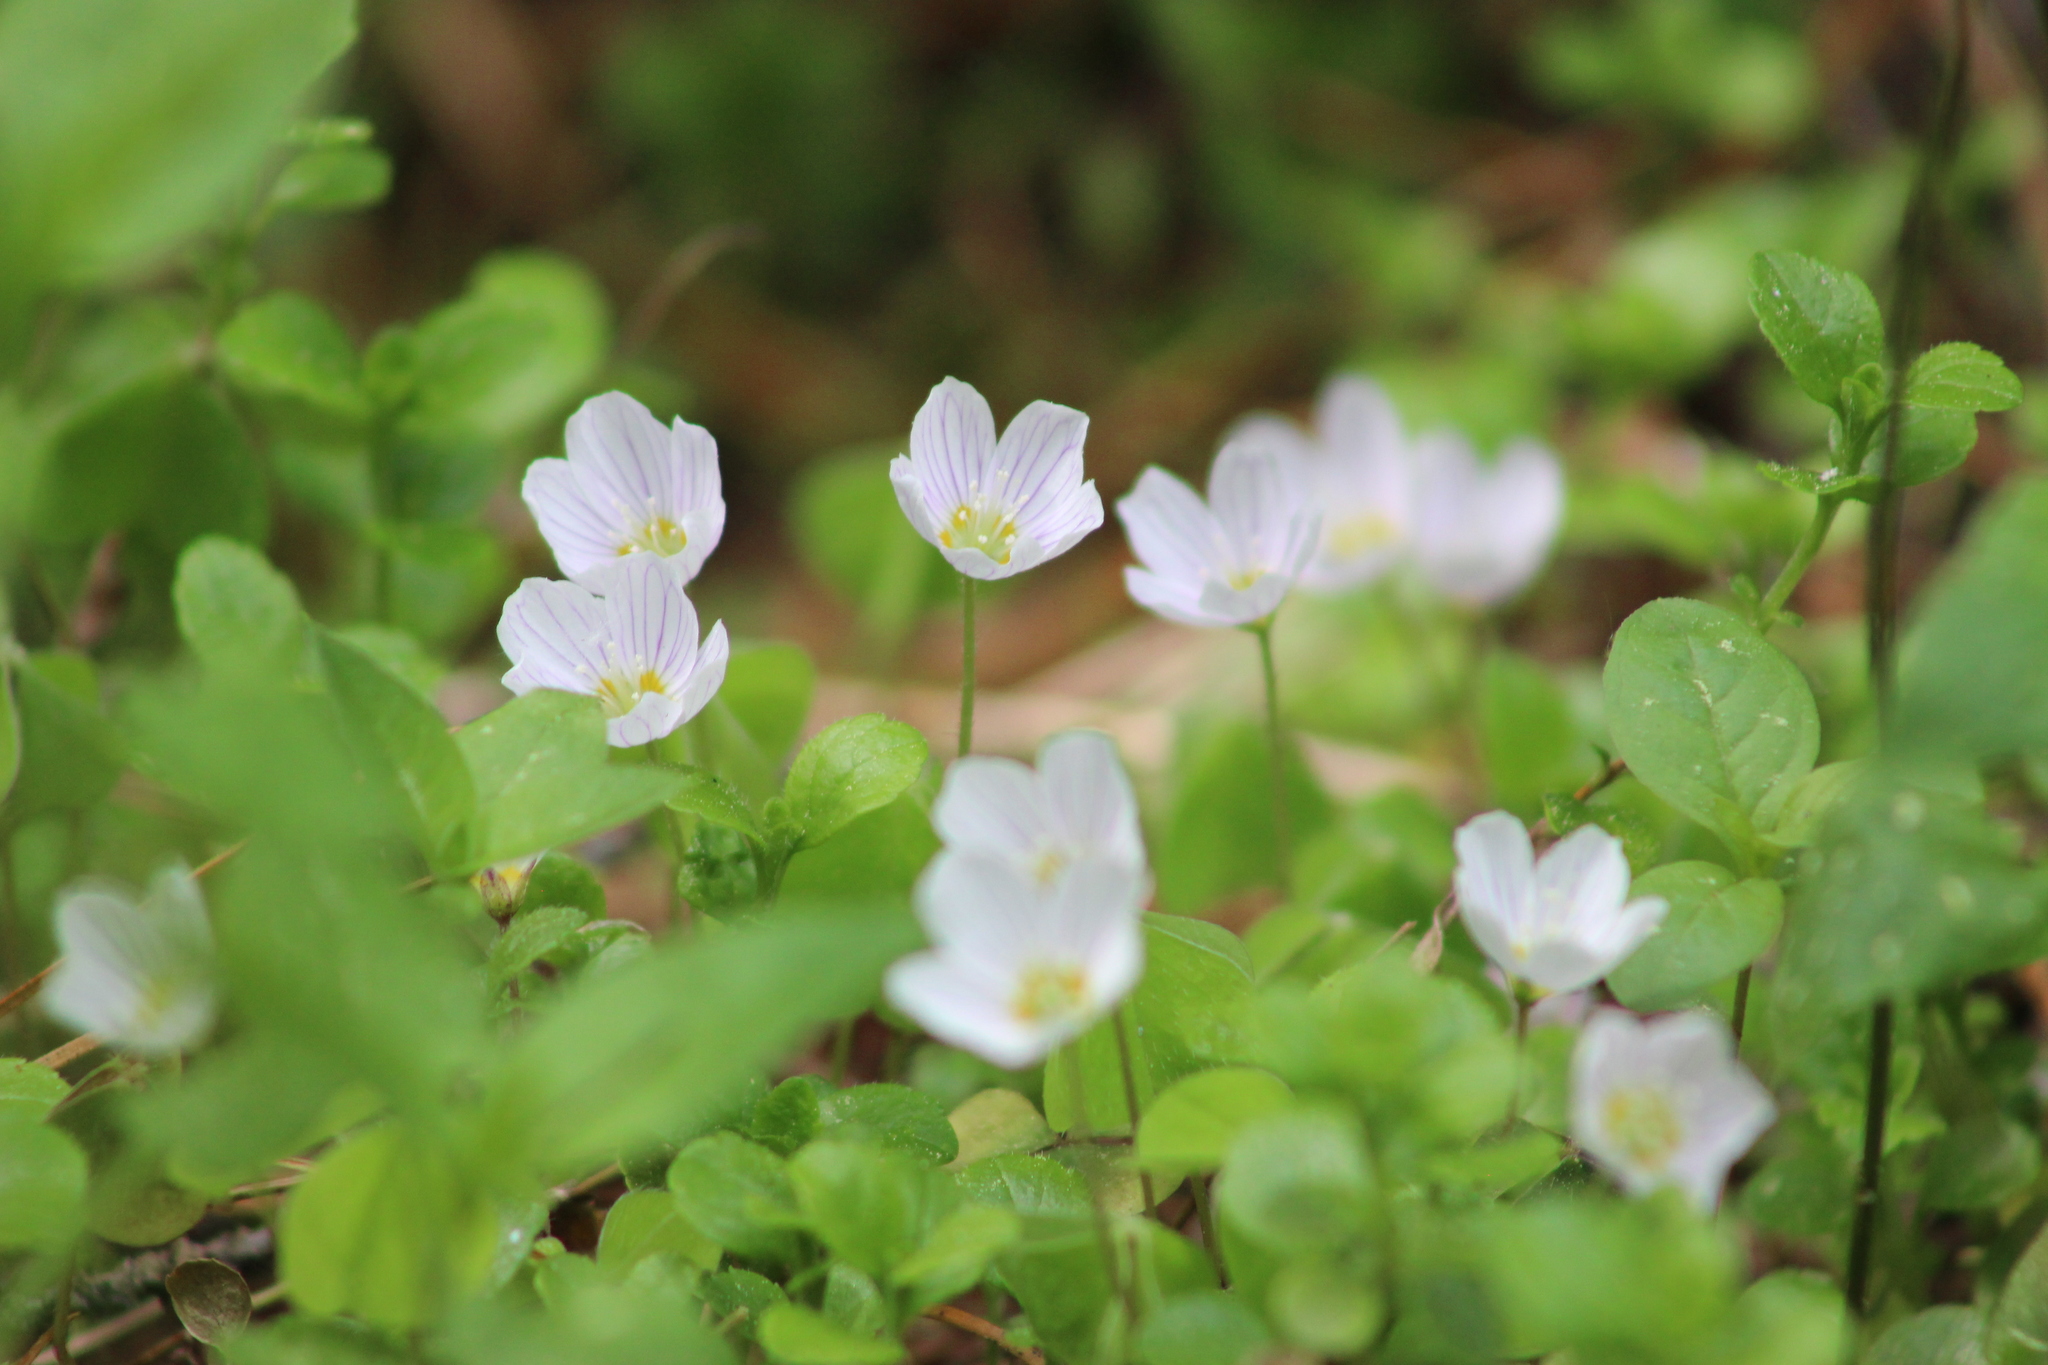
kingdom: Plantae
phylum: Tracheophyta
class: Magnoliopsida
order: Oxalidales
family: Oxalidaceae
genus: Oxalis
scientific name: Oxalis acetosella
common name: Wood-sorrel
